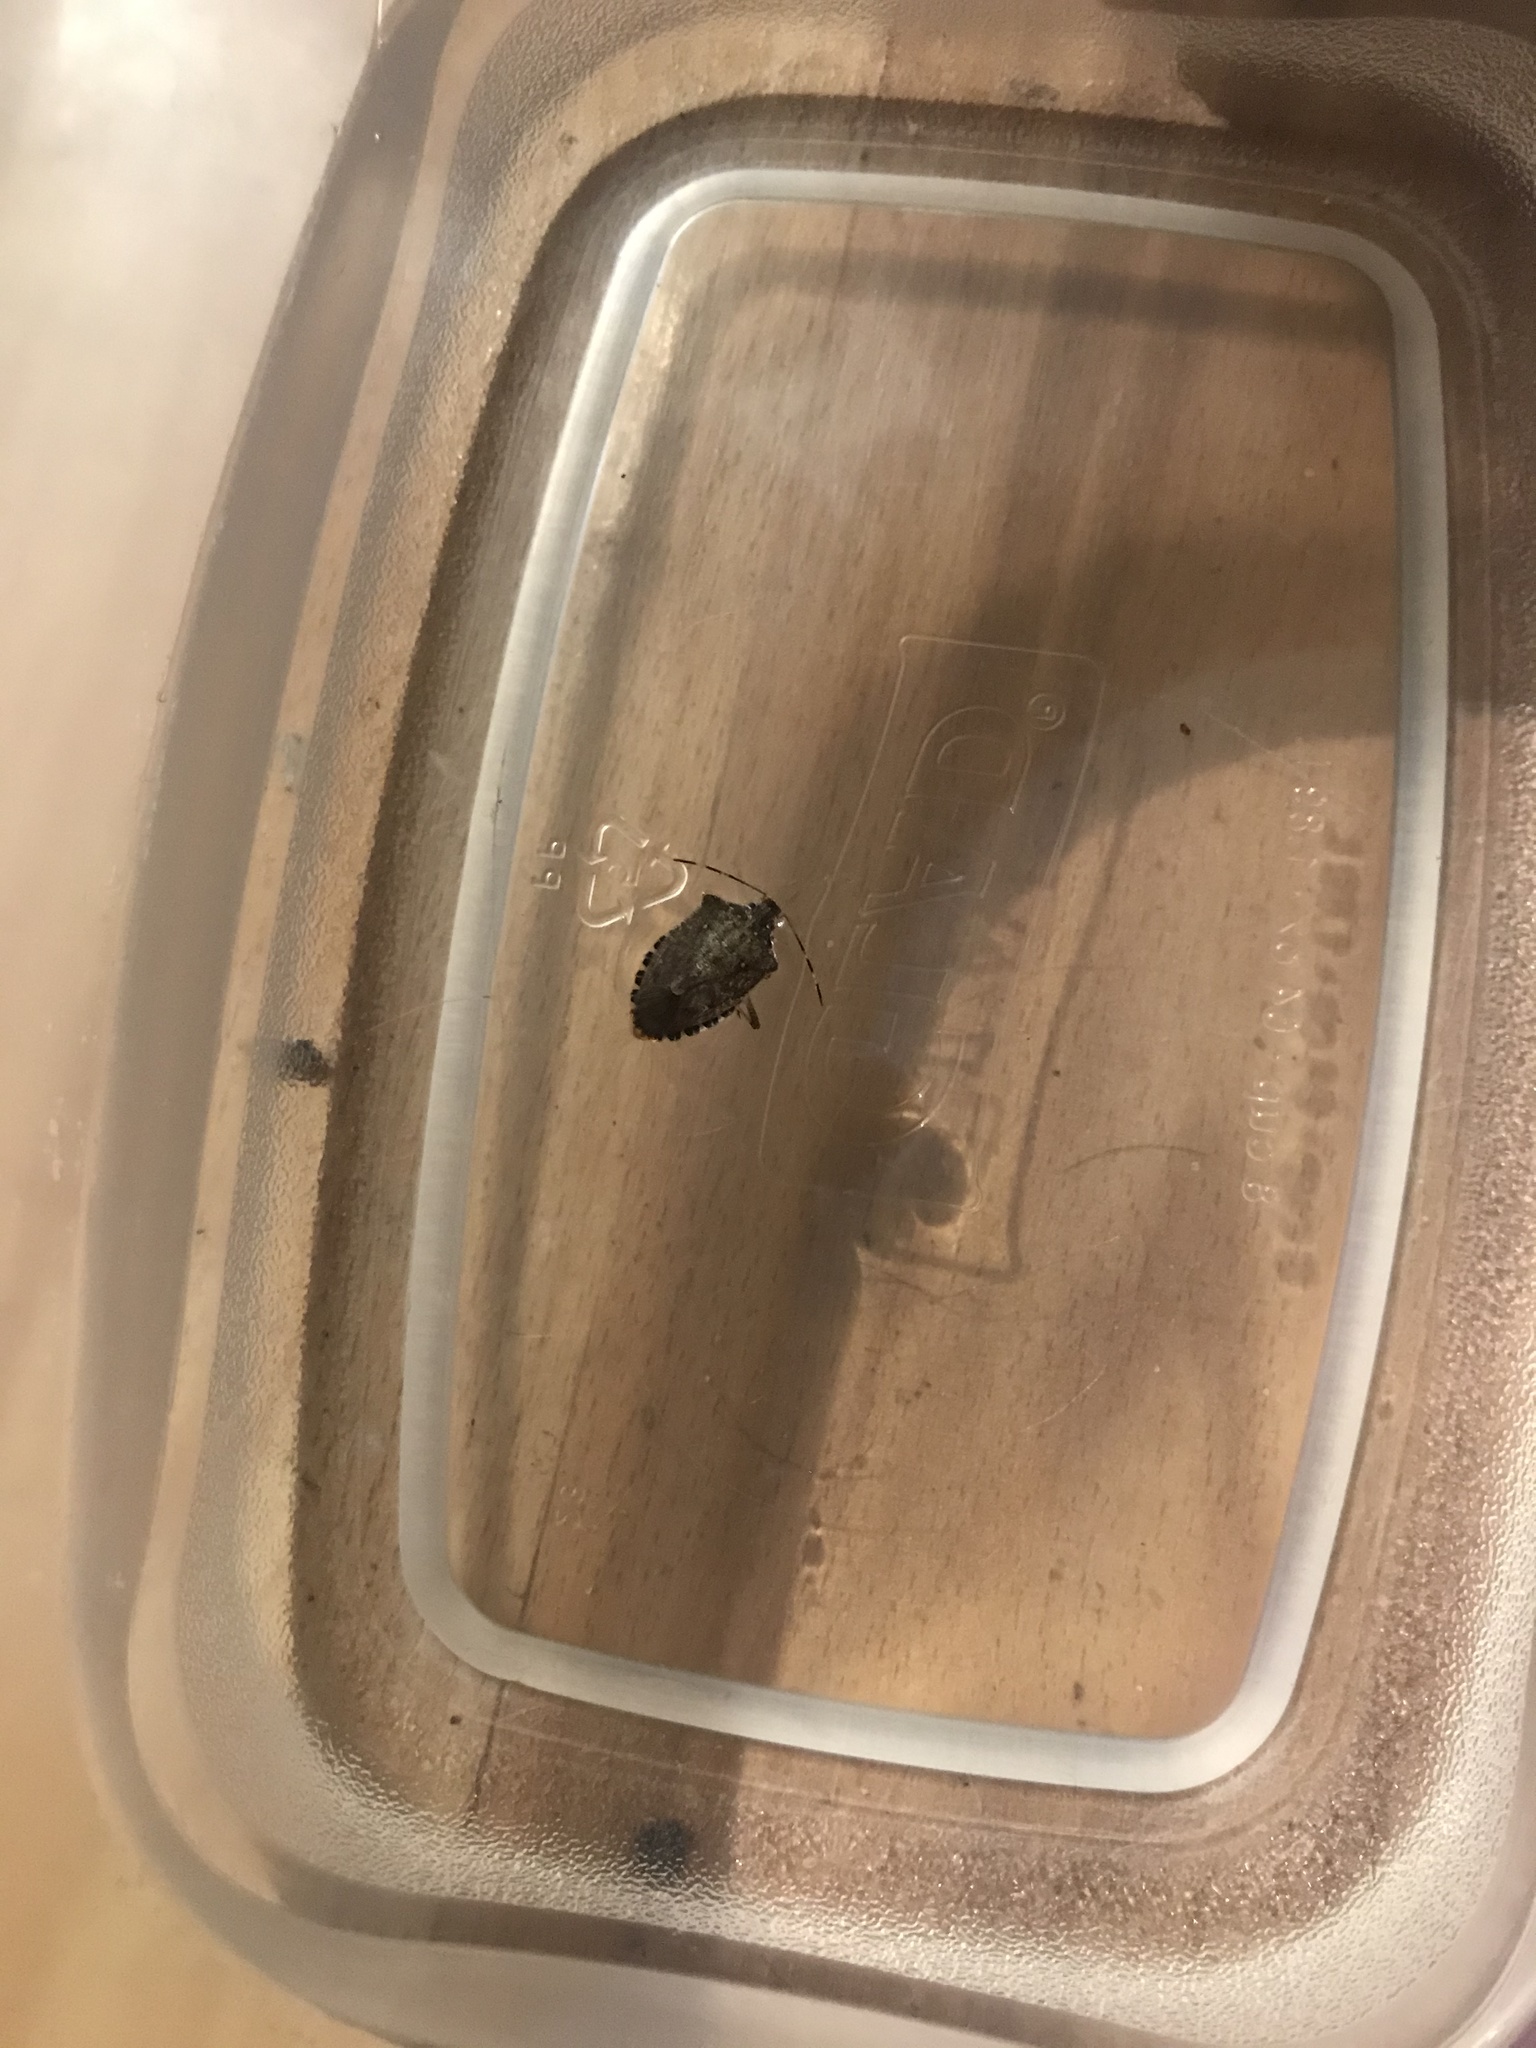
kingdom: Animalia
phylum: Arthropoda
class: Insecta
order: Hemiptera
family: Pentatomidae
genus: Halyomorpha
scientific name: Halyomorpha halys
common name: Brown marmorated stink bug
